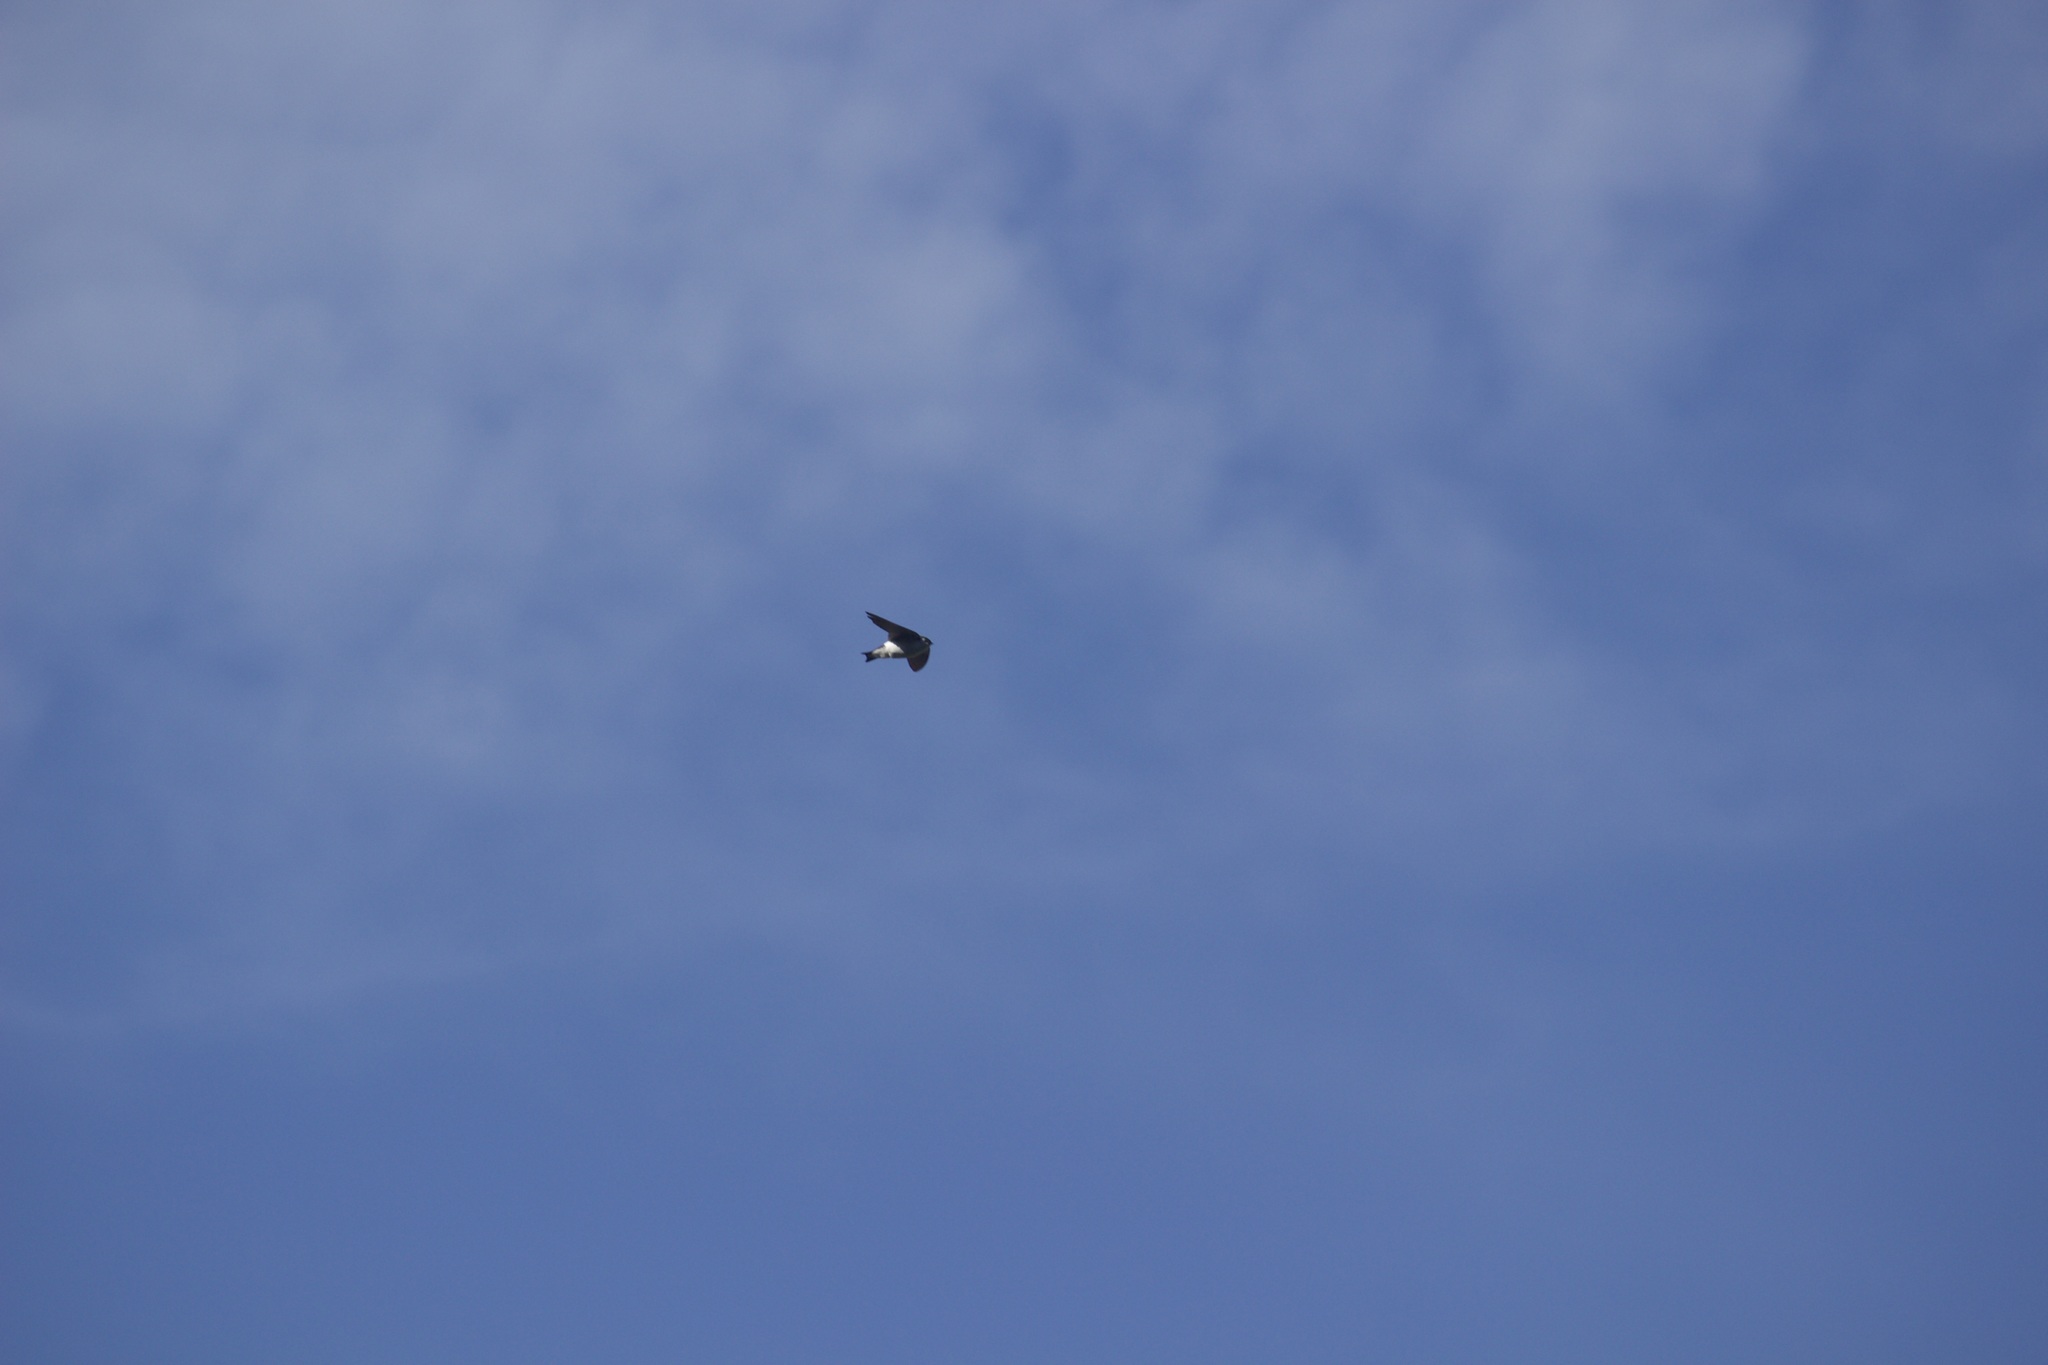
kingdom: Animalia
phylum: Chordata
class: Aves
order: Passeriformes
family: Hirundinidae
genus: Tachycineta
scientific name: Tachycineta thalassina
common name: Violet-green swallow
